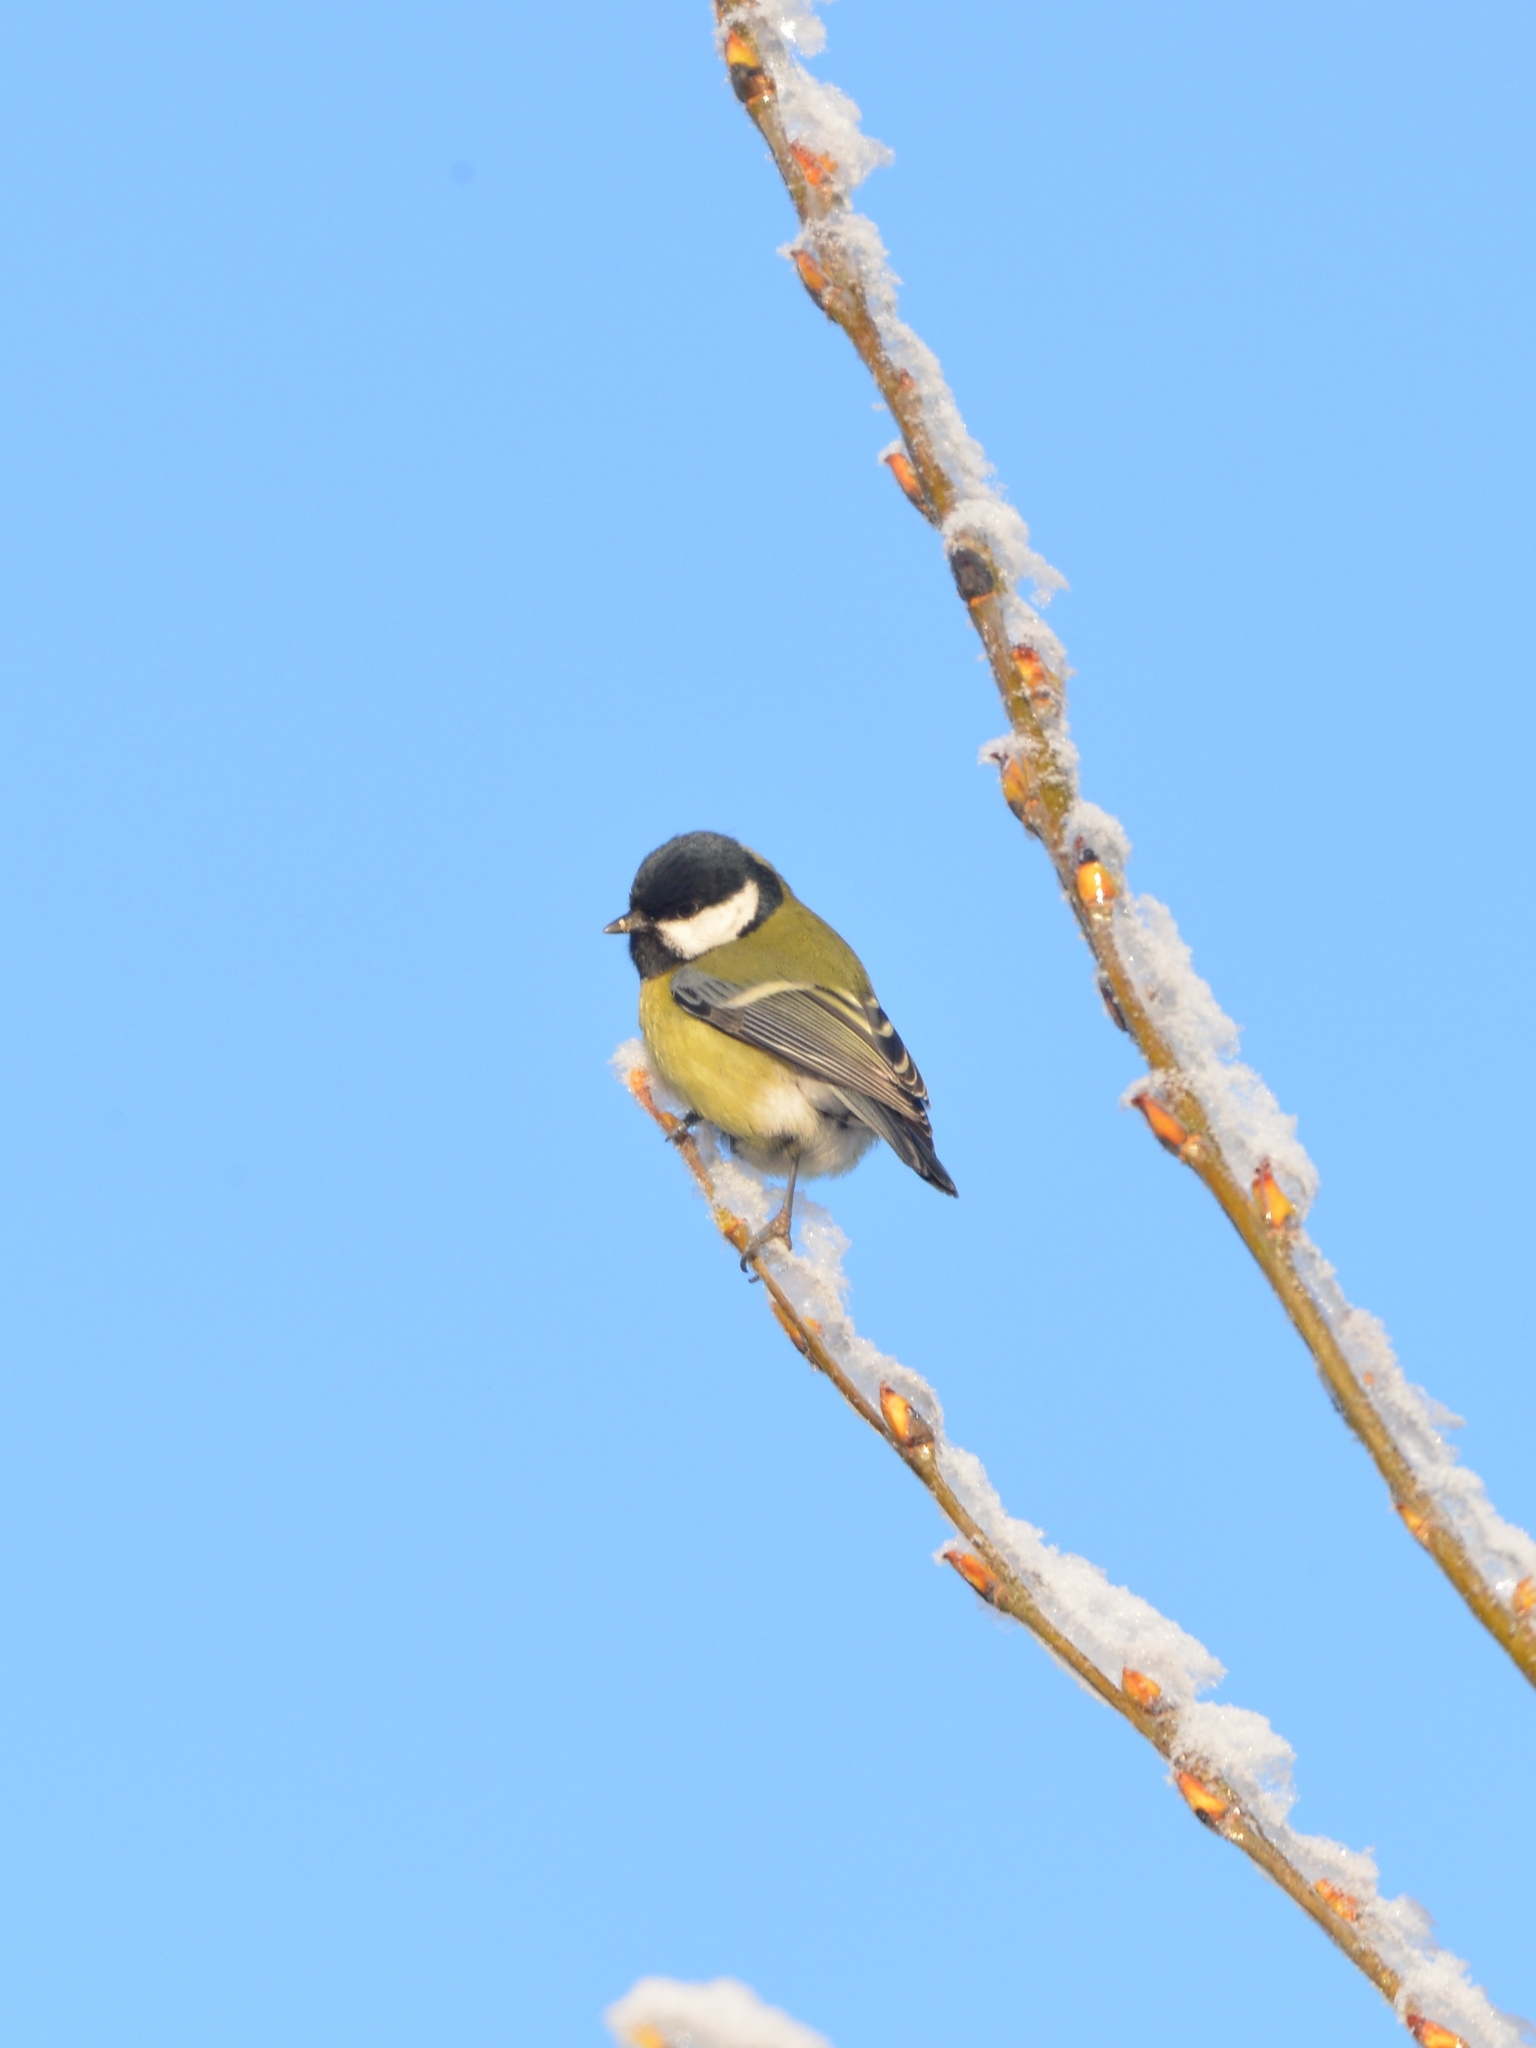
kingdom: Animalia
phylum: Chordata
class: Aves
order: Passeriformes
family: Paridae
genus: Parus
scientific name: Parus major
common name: Great tit
